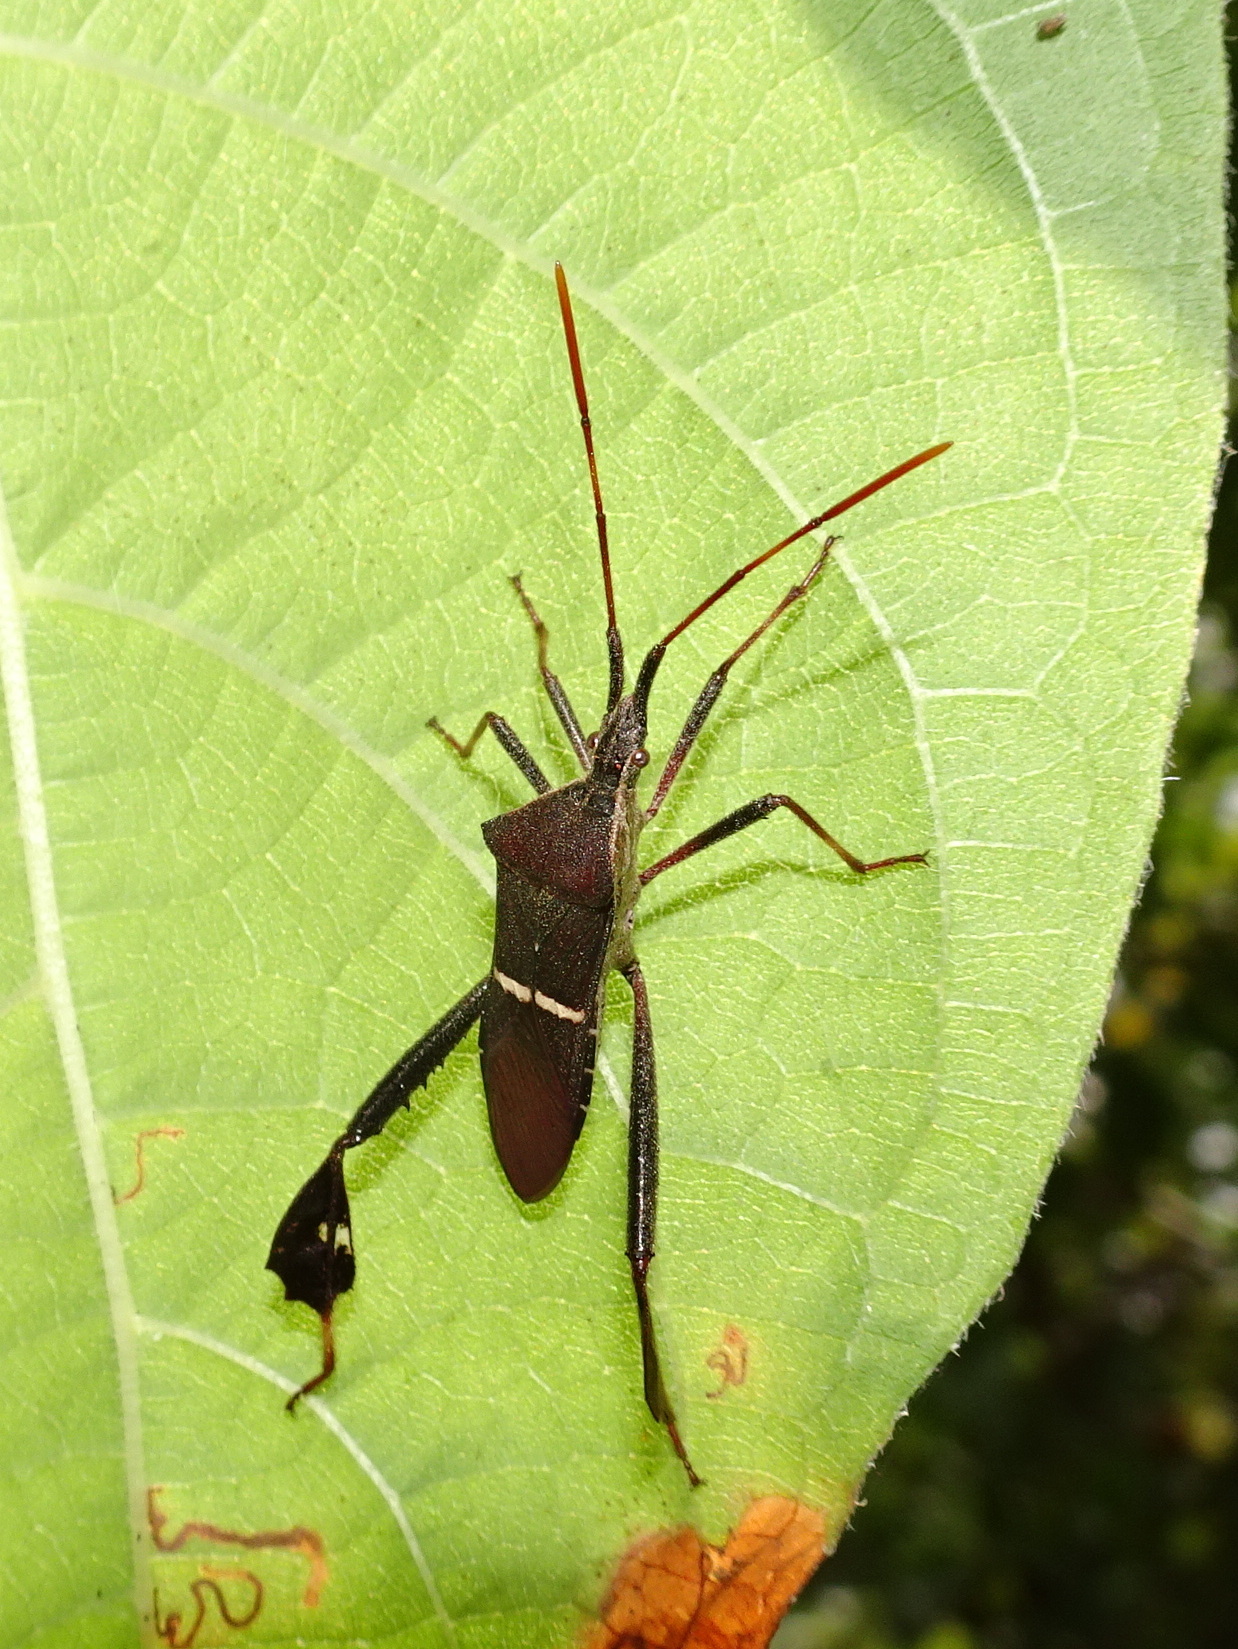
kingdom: Animalia
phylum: Arthropoda
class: Insecta
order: Hemiptera
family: Coreidae
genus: Leptoglossus
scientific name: Leptoglossus phyllopus
